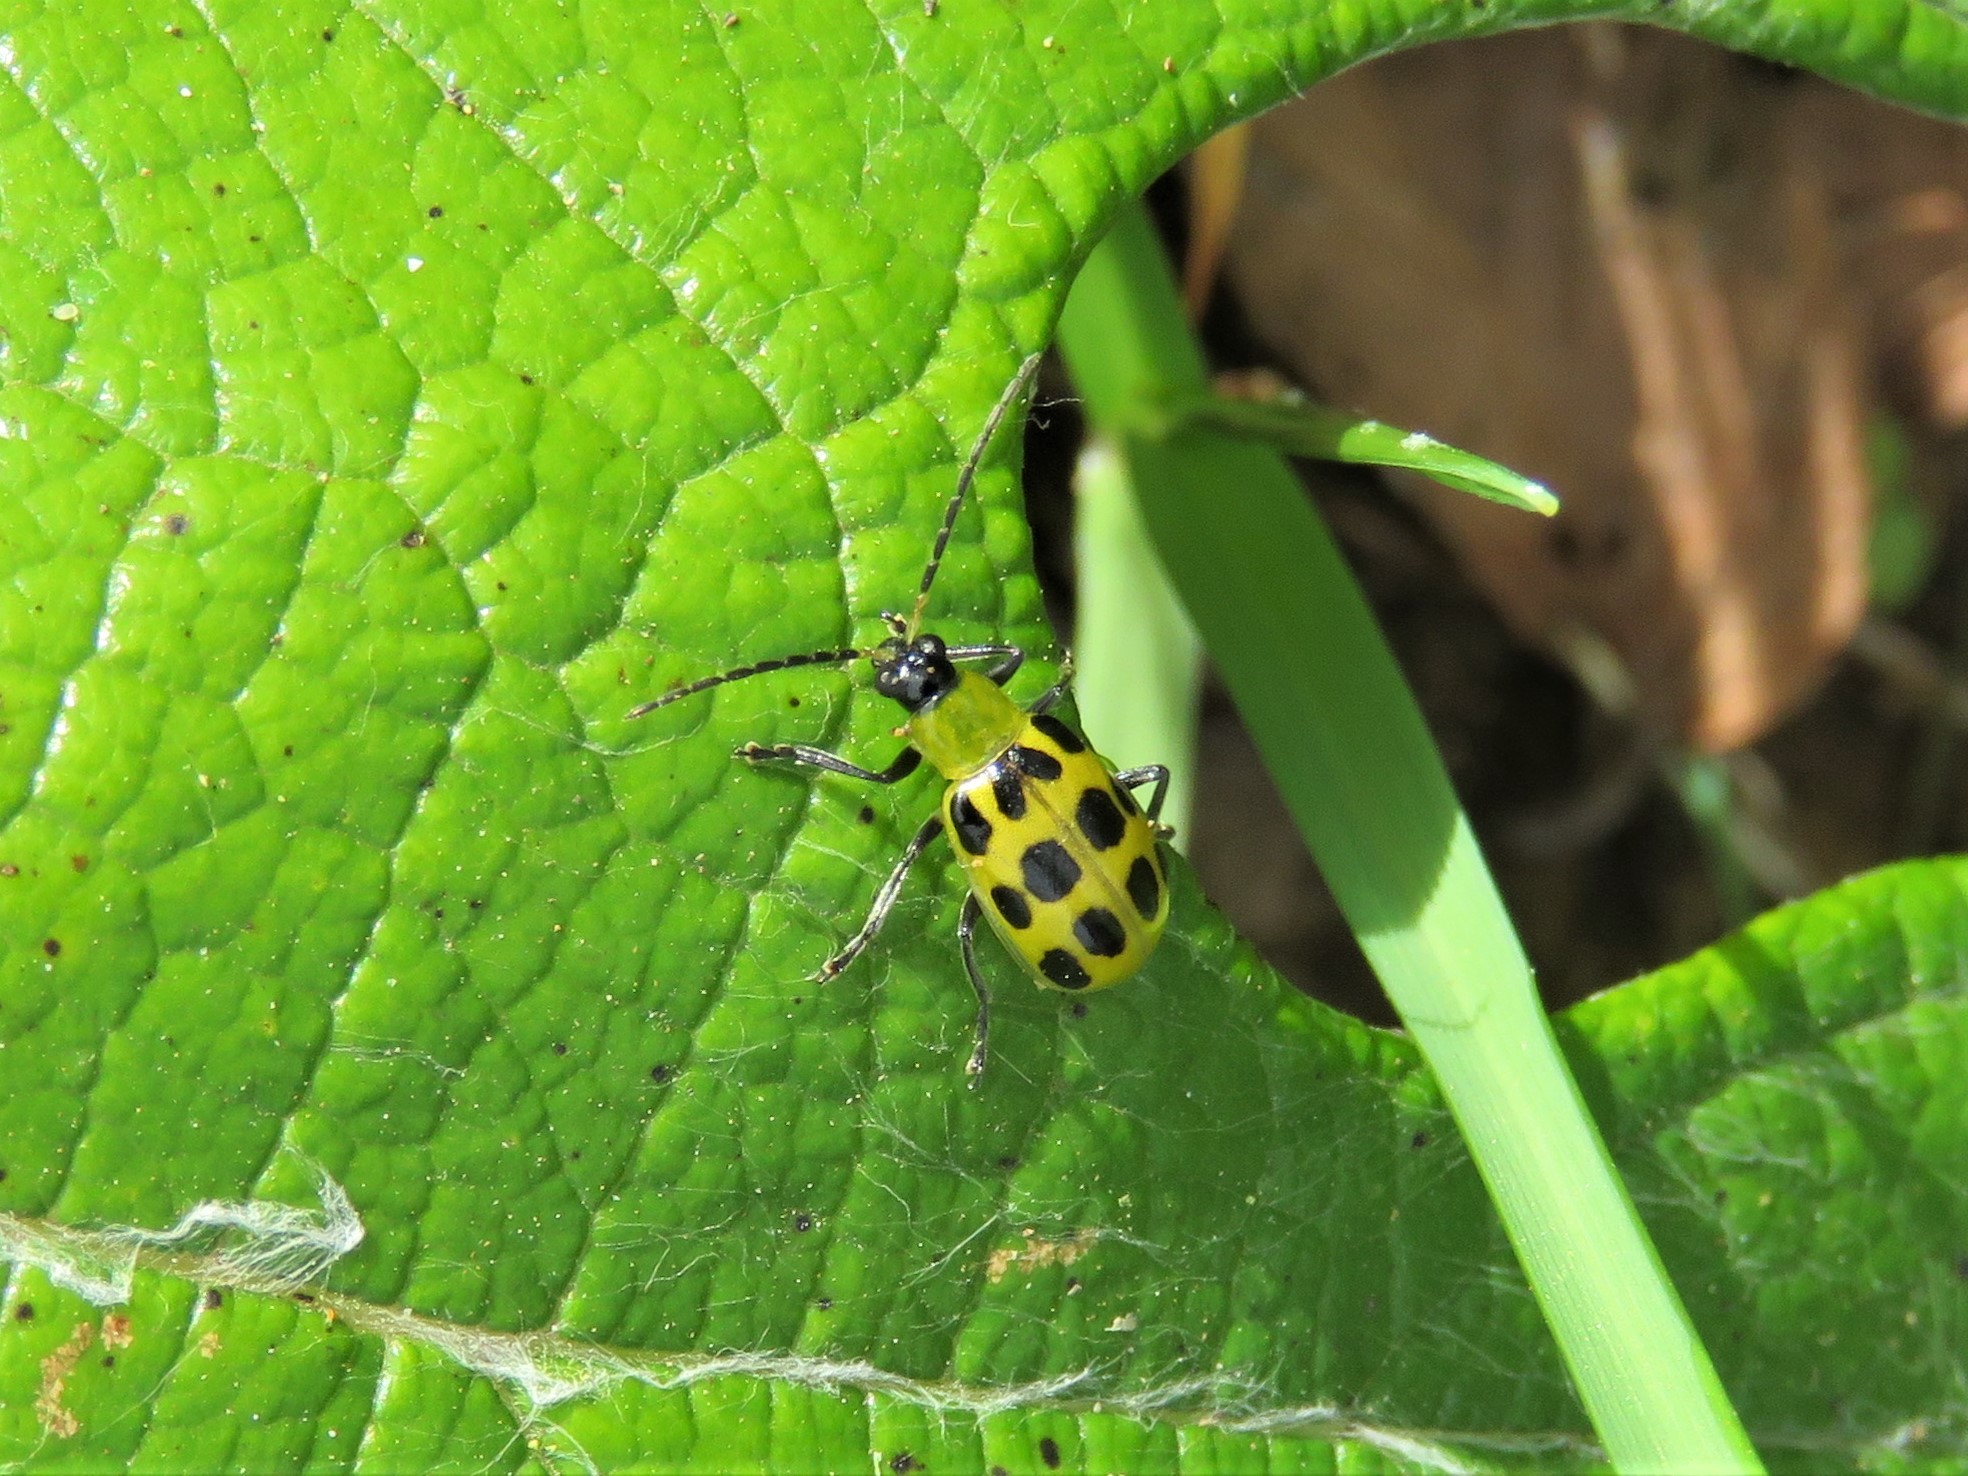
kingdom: Animalia
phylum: Arthropoda
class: Insecta
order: Coleoptera
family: Chrysomelidae
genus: Diabrotica
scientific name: Diabrotica undecimpunctata
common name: Spotted cucumber beetle
